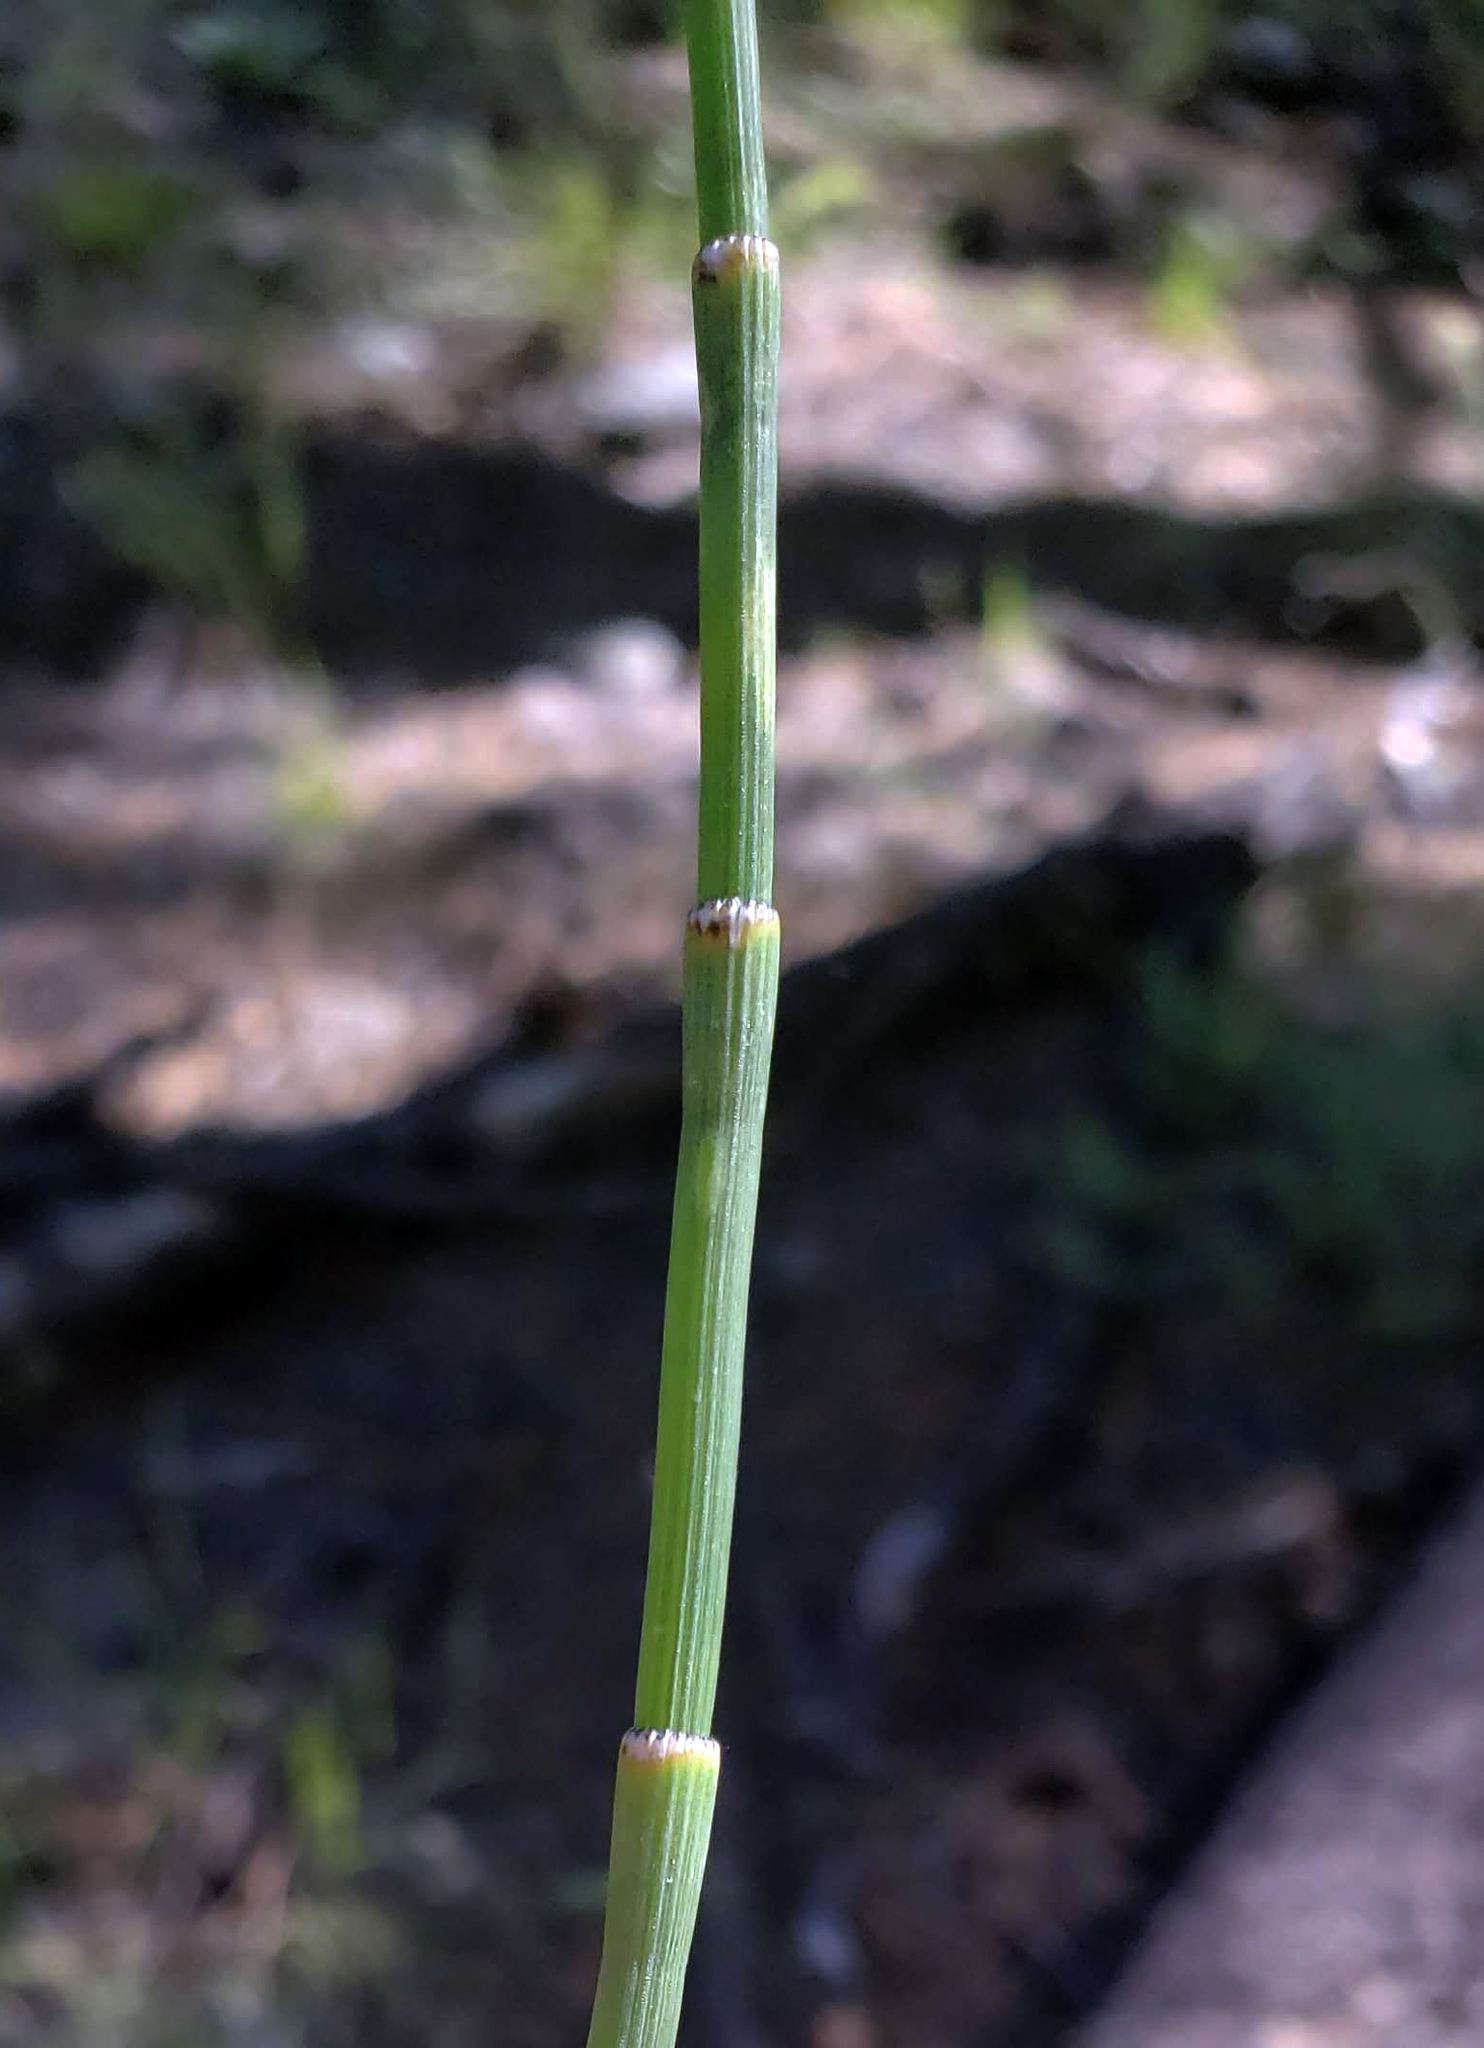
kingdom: Plantae
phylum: Tracheophyta
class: Polypodiopsida
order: Equisetales
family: Equisetaceae
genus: Equisetum
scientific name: Equisetum laevigatum
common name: Smooth scouring-rush
